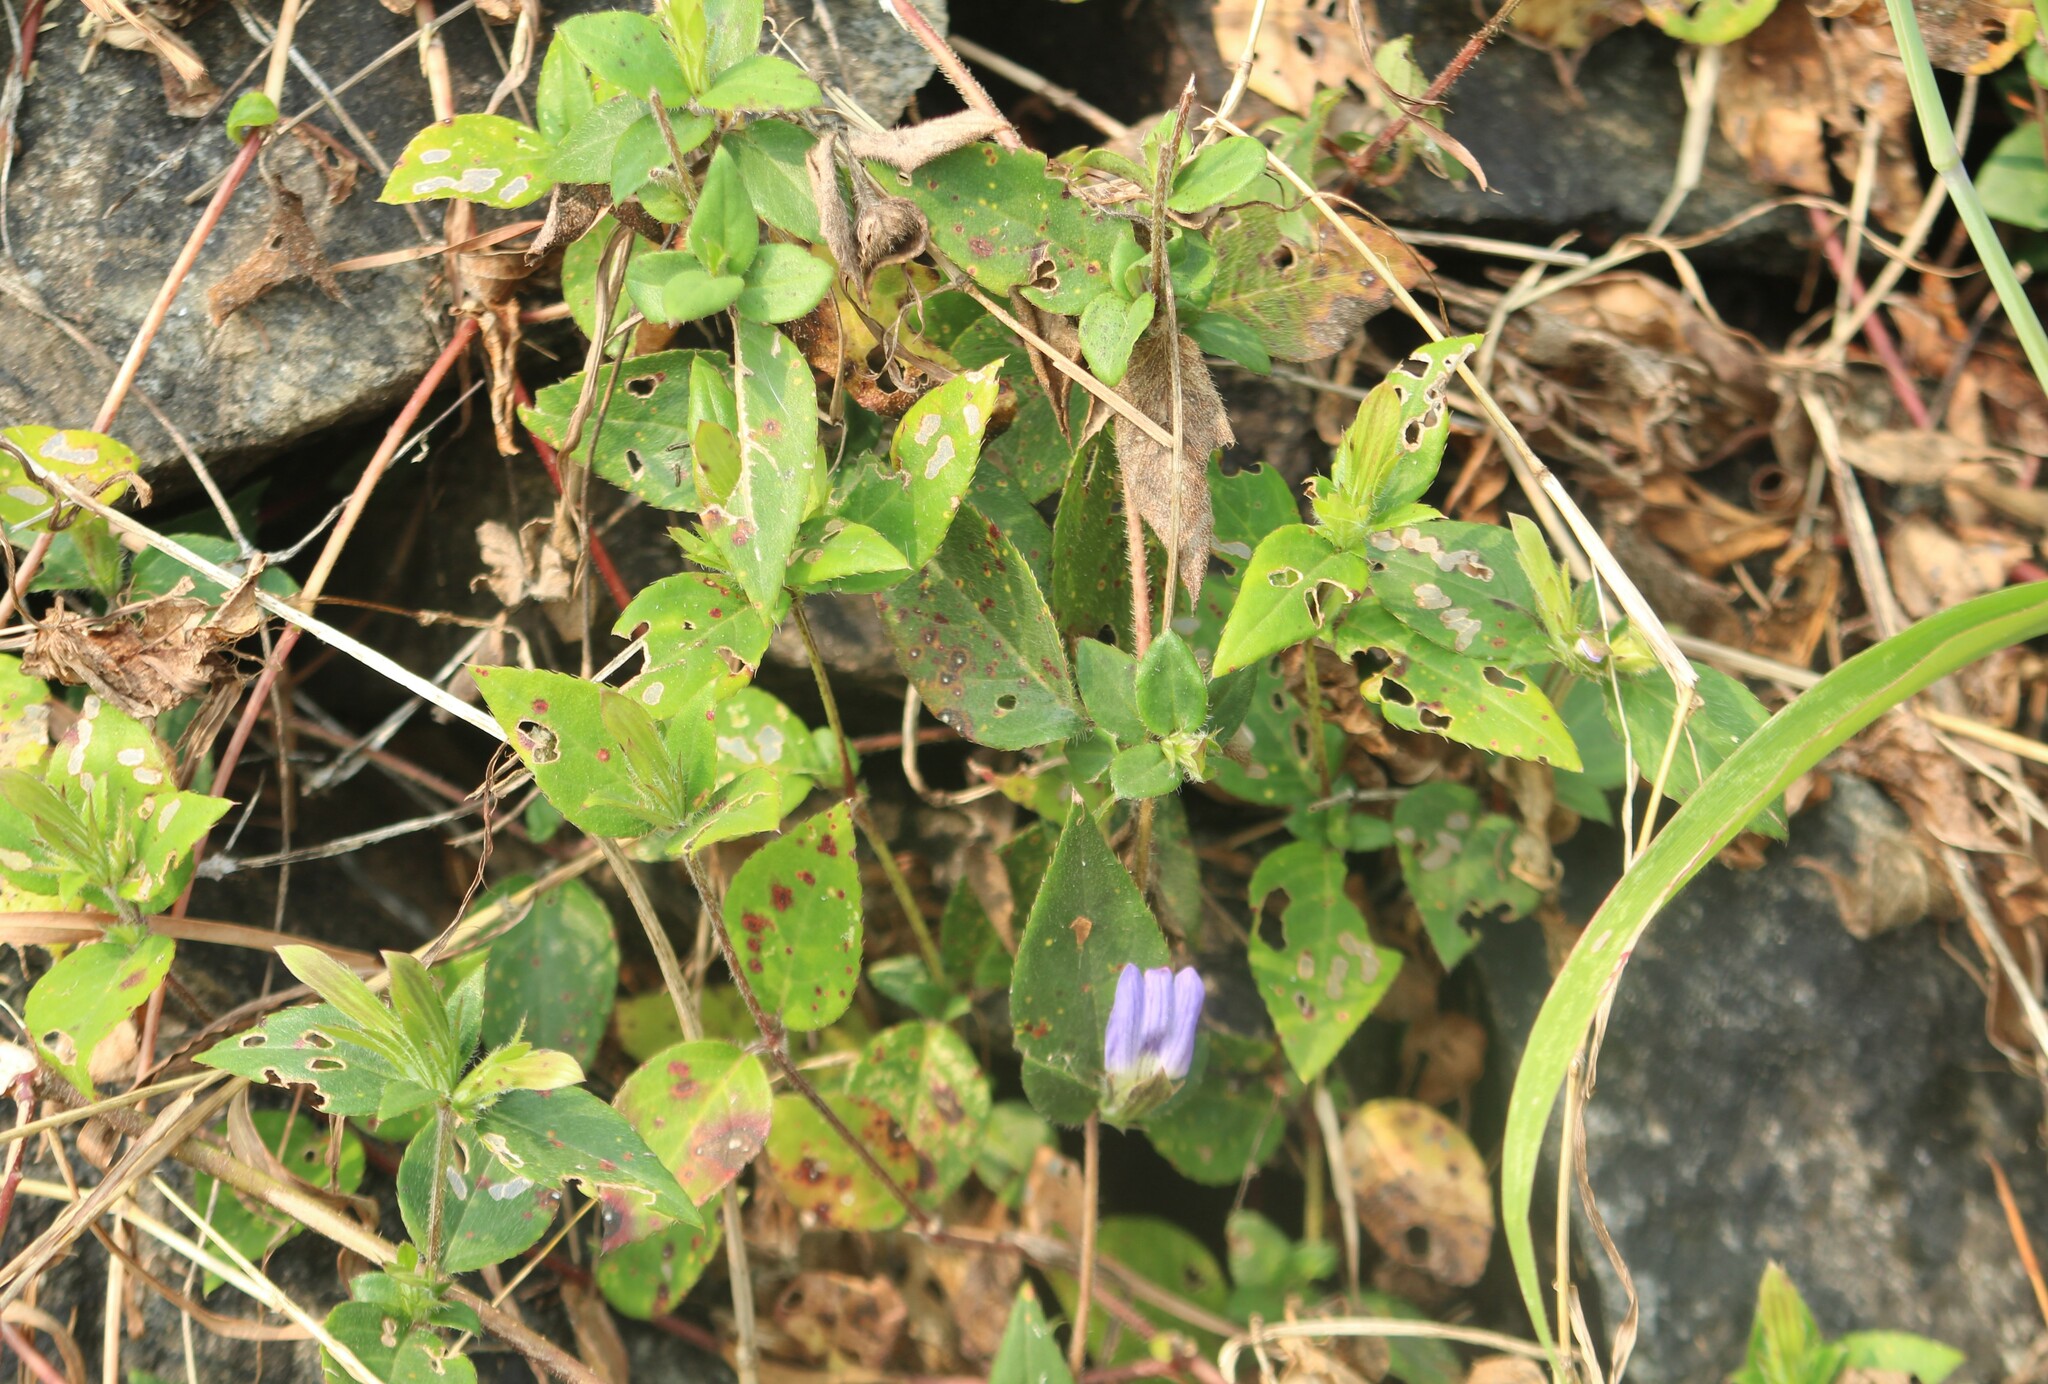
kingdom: Plantae
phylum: Tracheophyta
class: Magnoliopsida
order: Lamiales
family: Acanthaceae
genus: Cynarospermum
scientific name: Cynarospermum asperrimum
